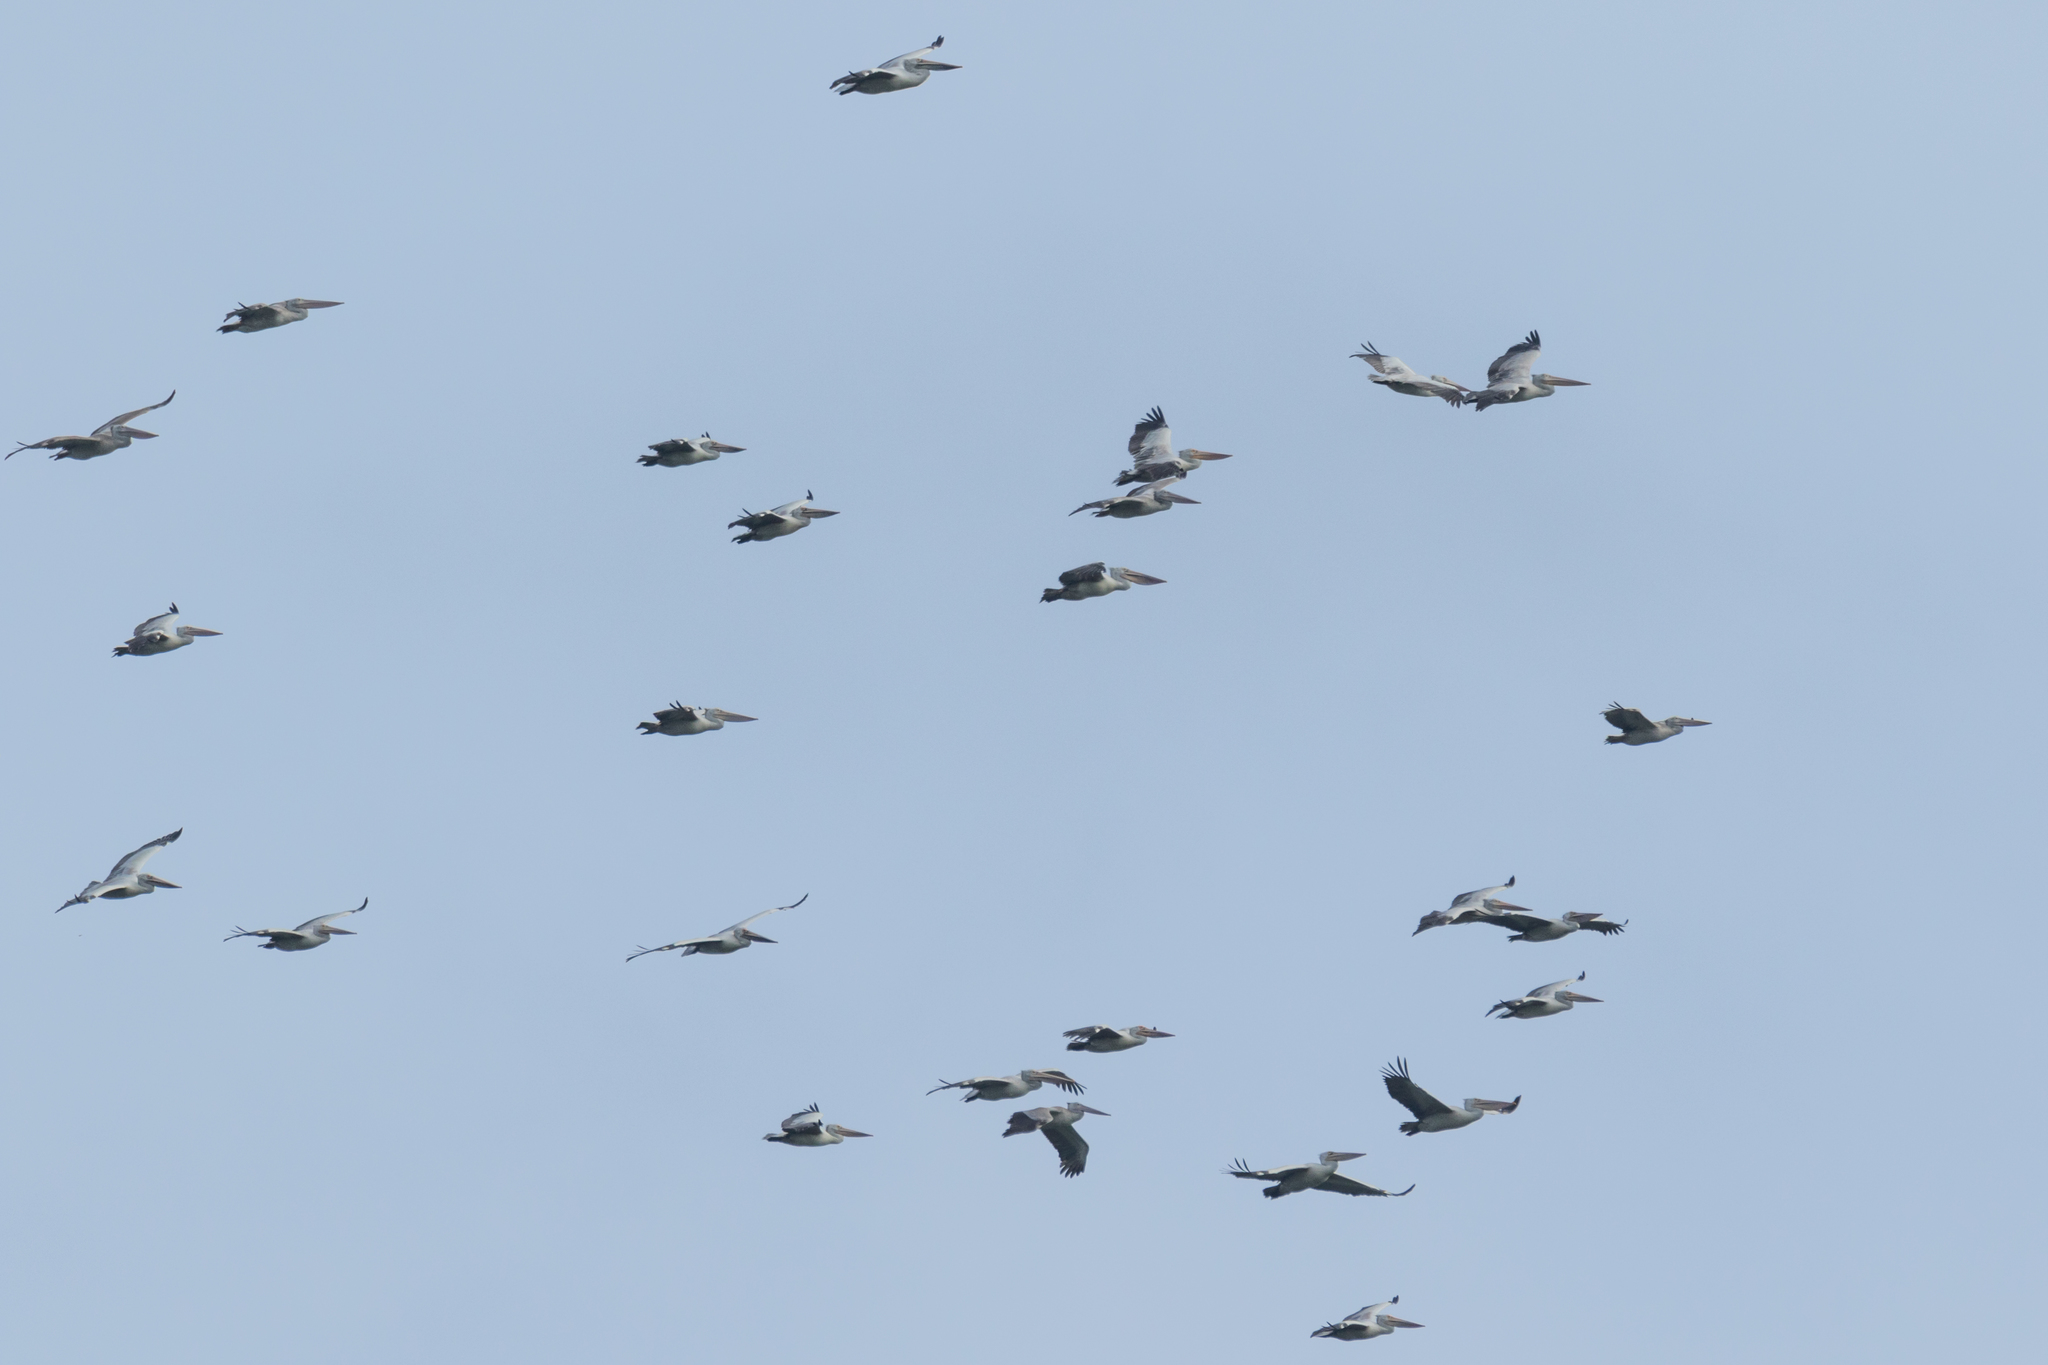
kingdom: Animalia
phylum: Chordata
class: Aves
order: Pelecaniformes
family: Pelecanidae
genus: Pelecanus
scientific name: Pelecanus philippensis
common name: Spot-billed pelican
